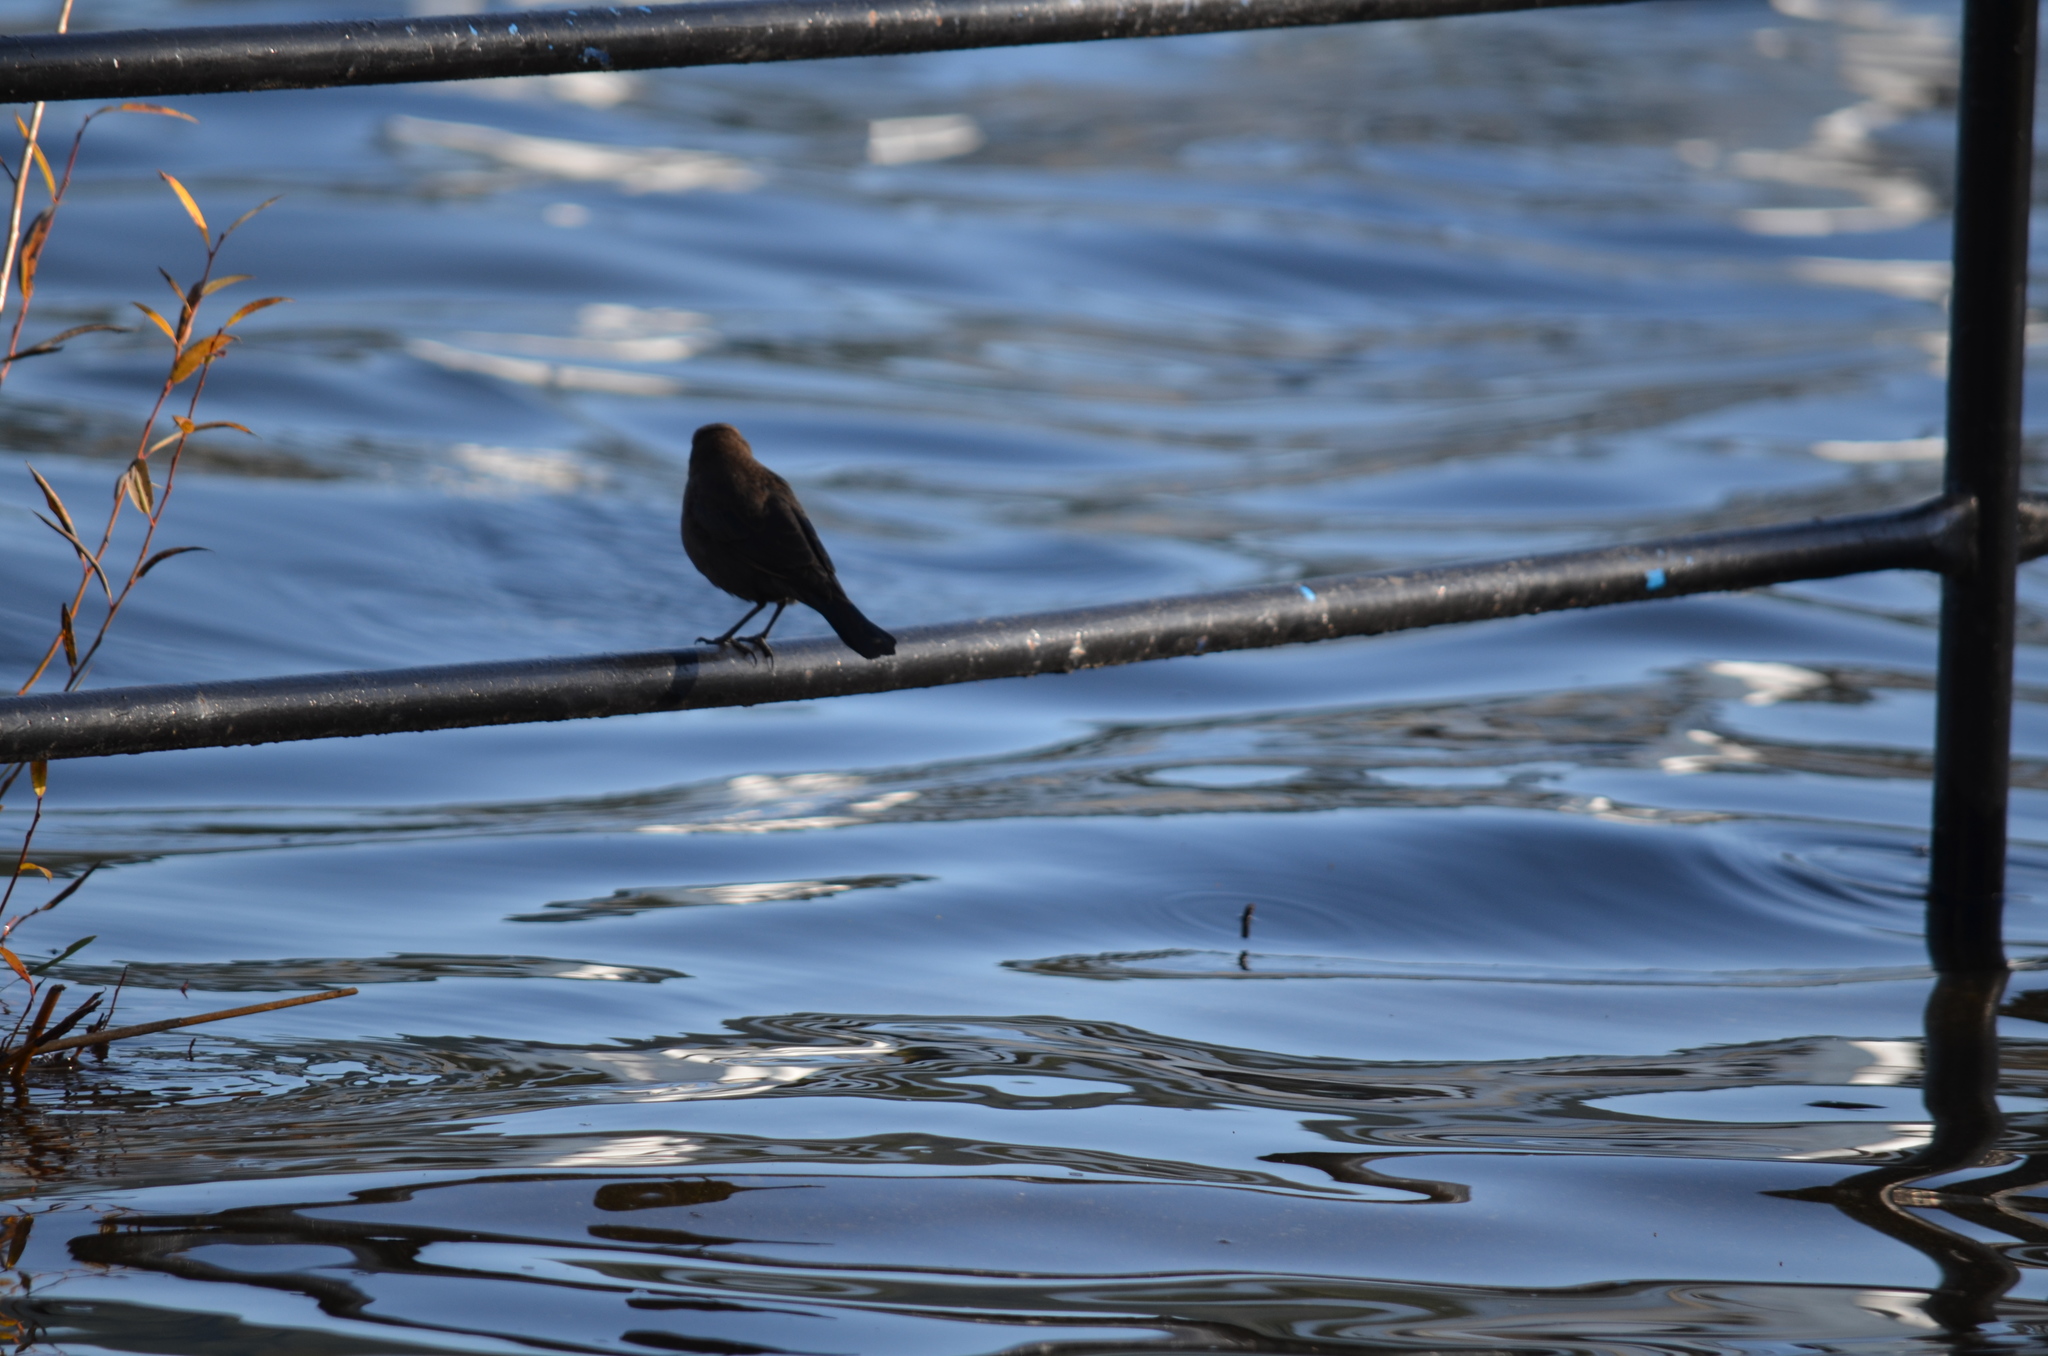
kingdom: Animalia
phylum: Chordata
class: Aves
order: Passeriformes
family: Icteridae
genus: Euphagus
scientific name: Euphagus cyanocephalus
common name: Brewer's blackbird
